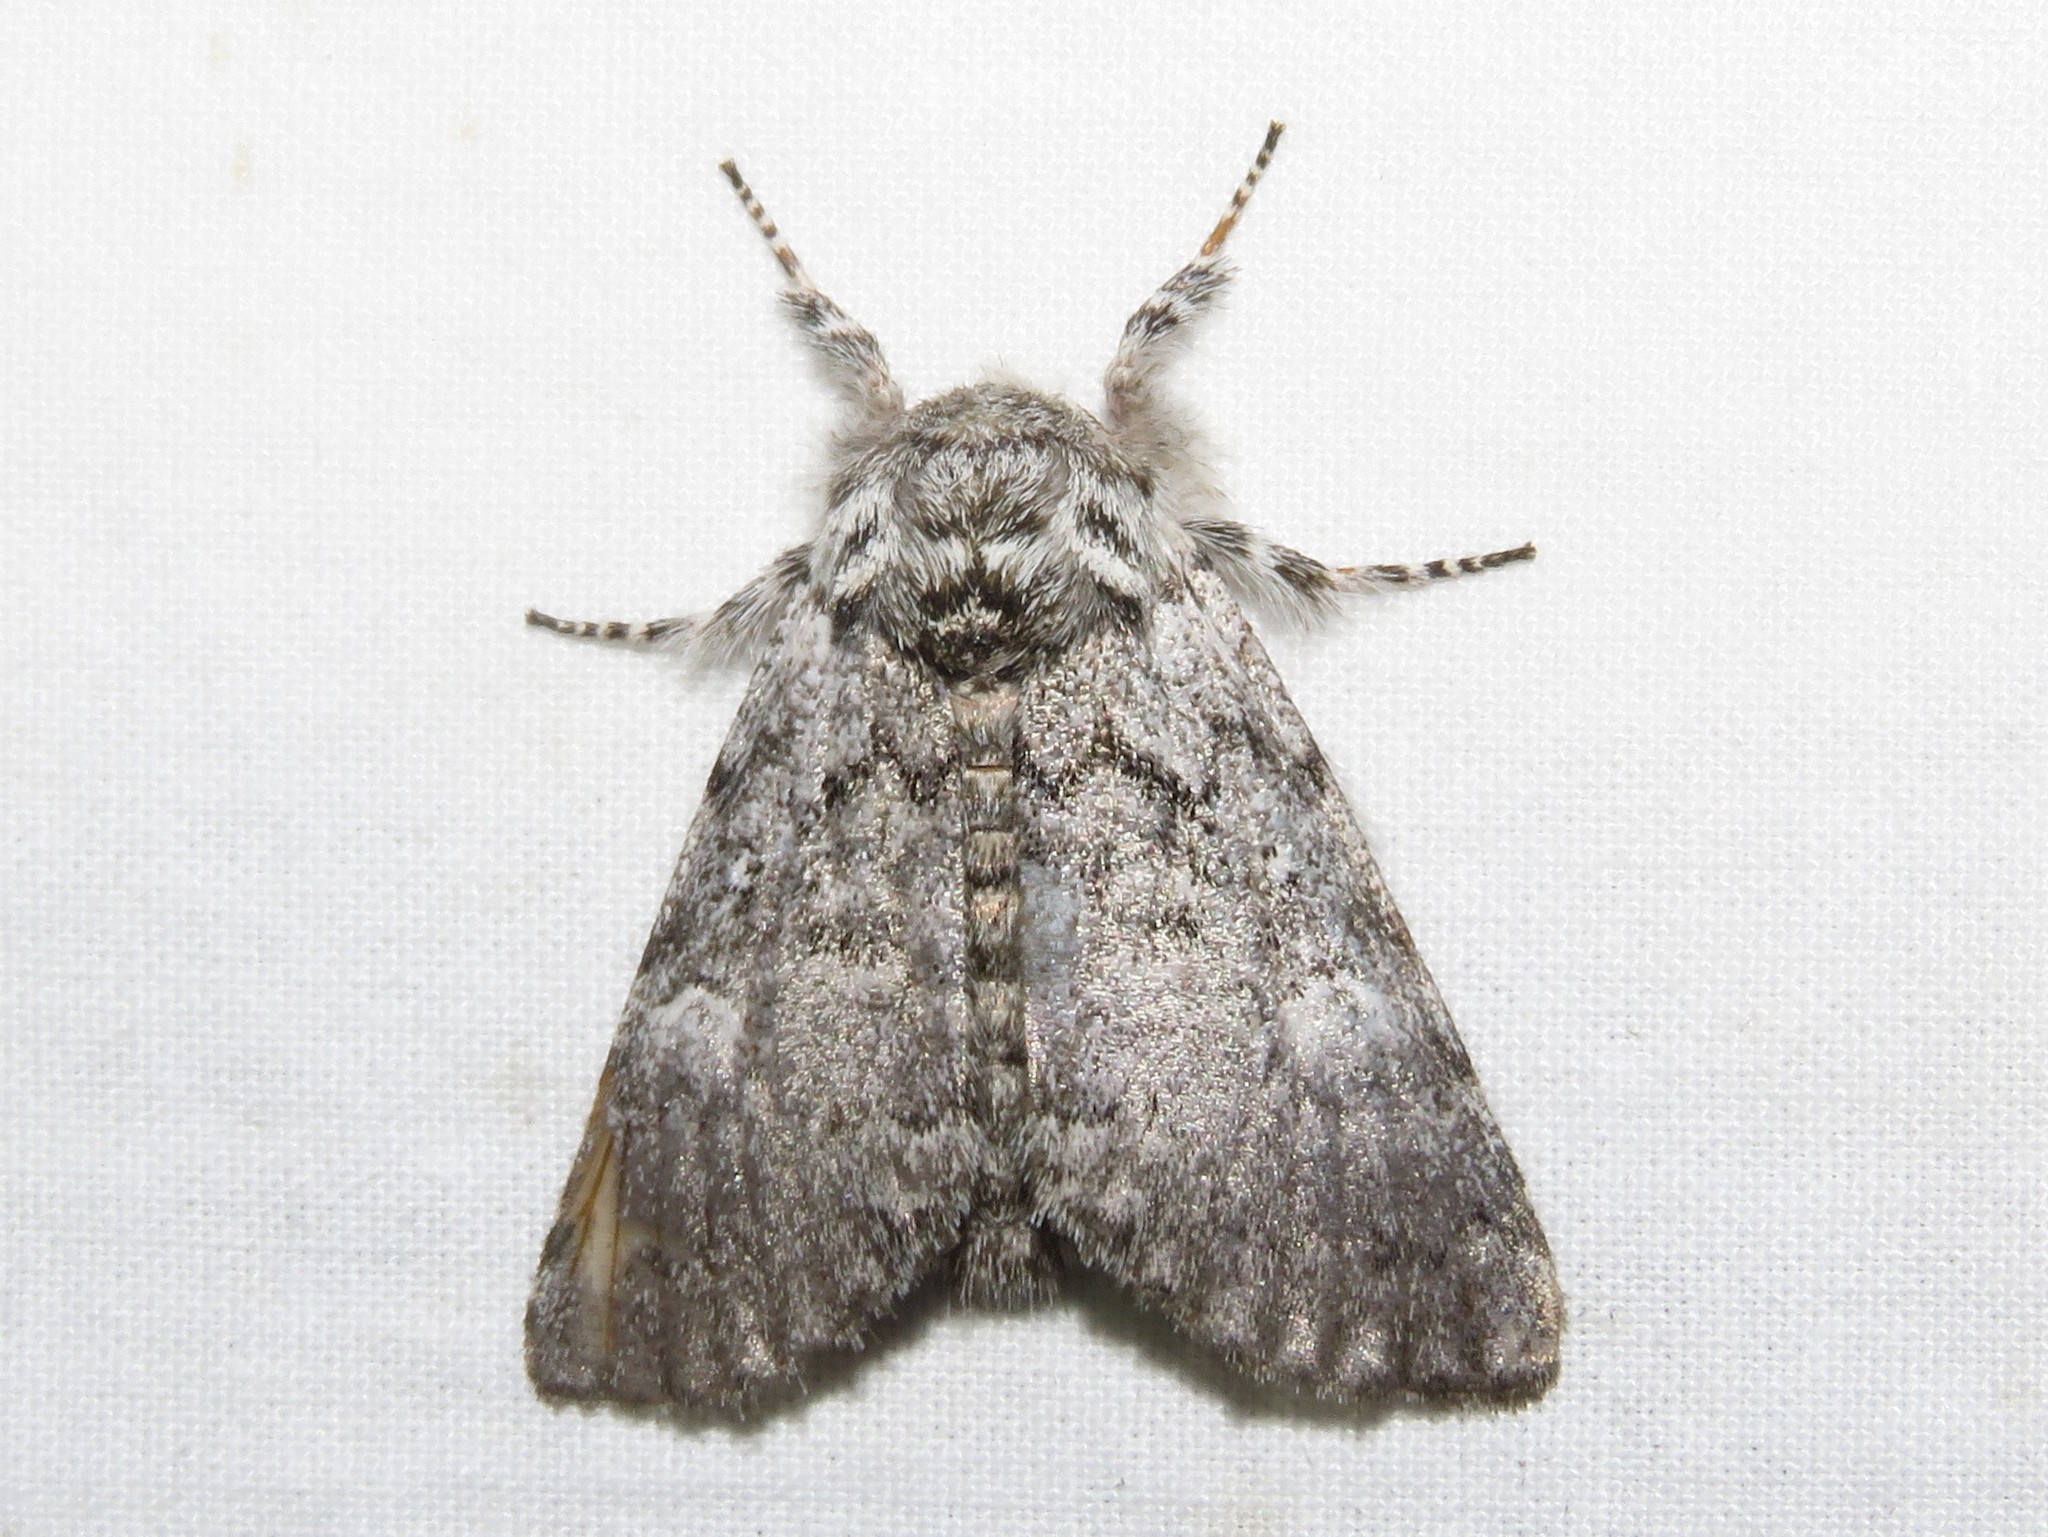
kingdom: Animalia
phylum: Arthropoda
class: Insecta
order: Lepidoptera
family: Noctuidae
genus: Colocasia
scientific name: Colocasia propinquilinea
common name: Close-banded demas
